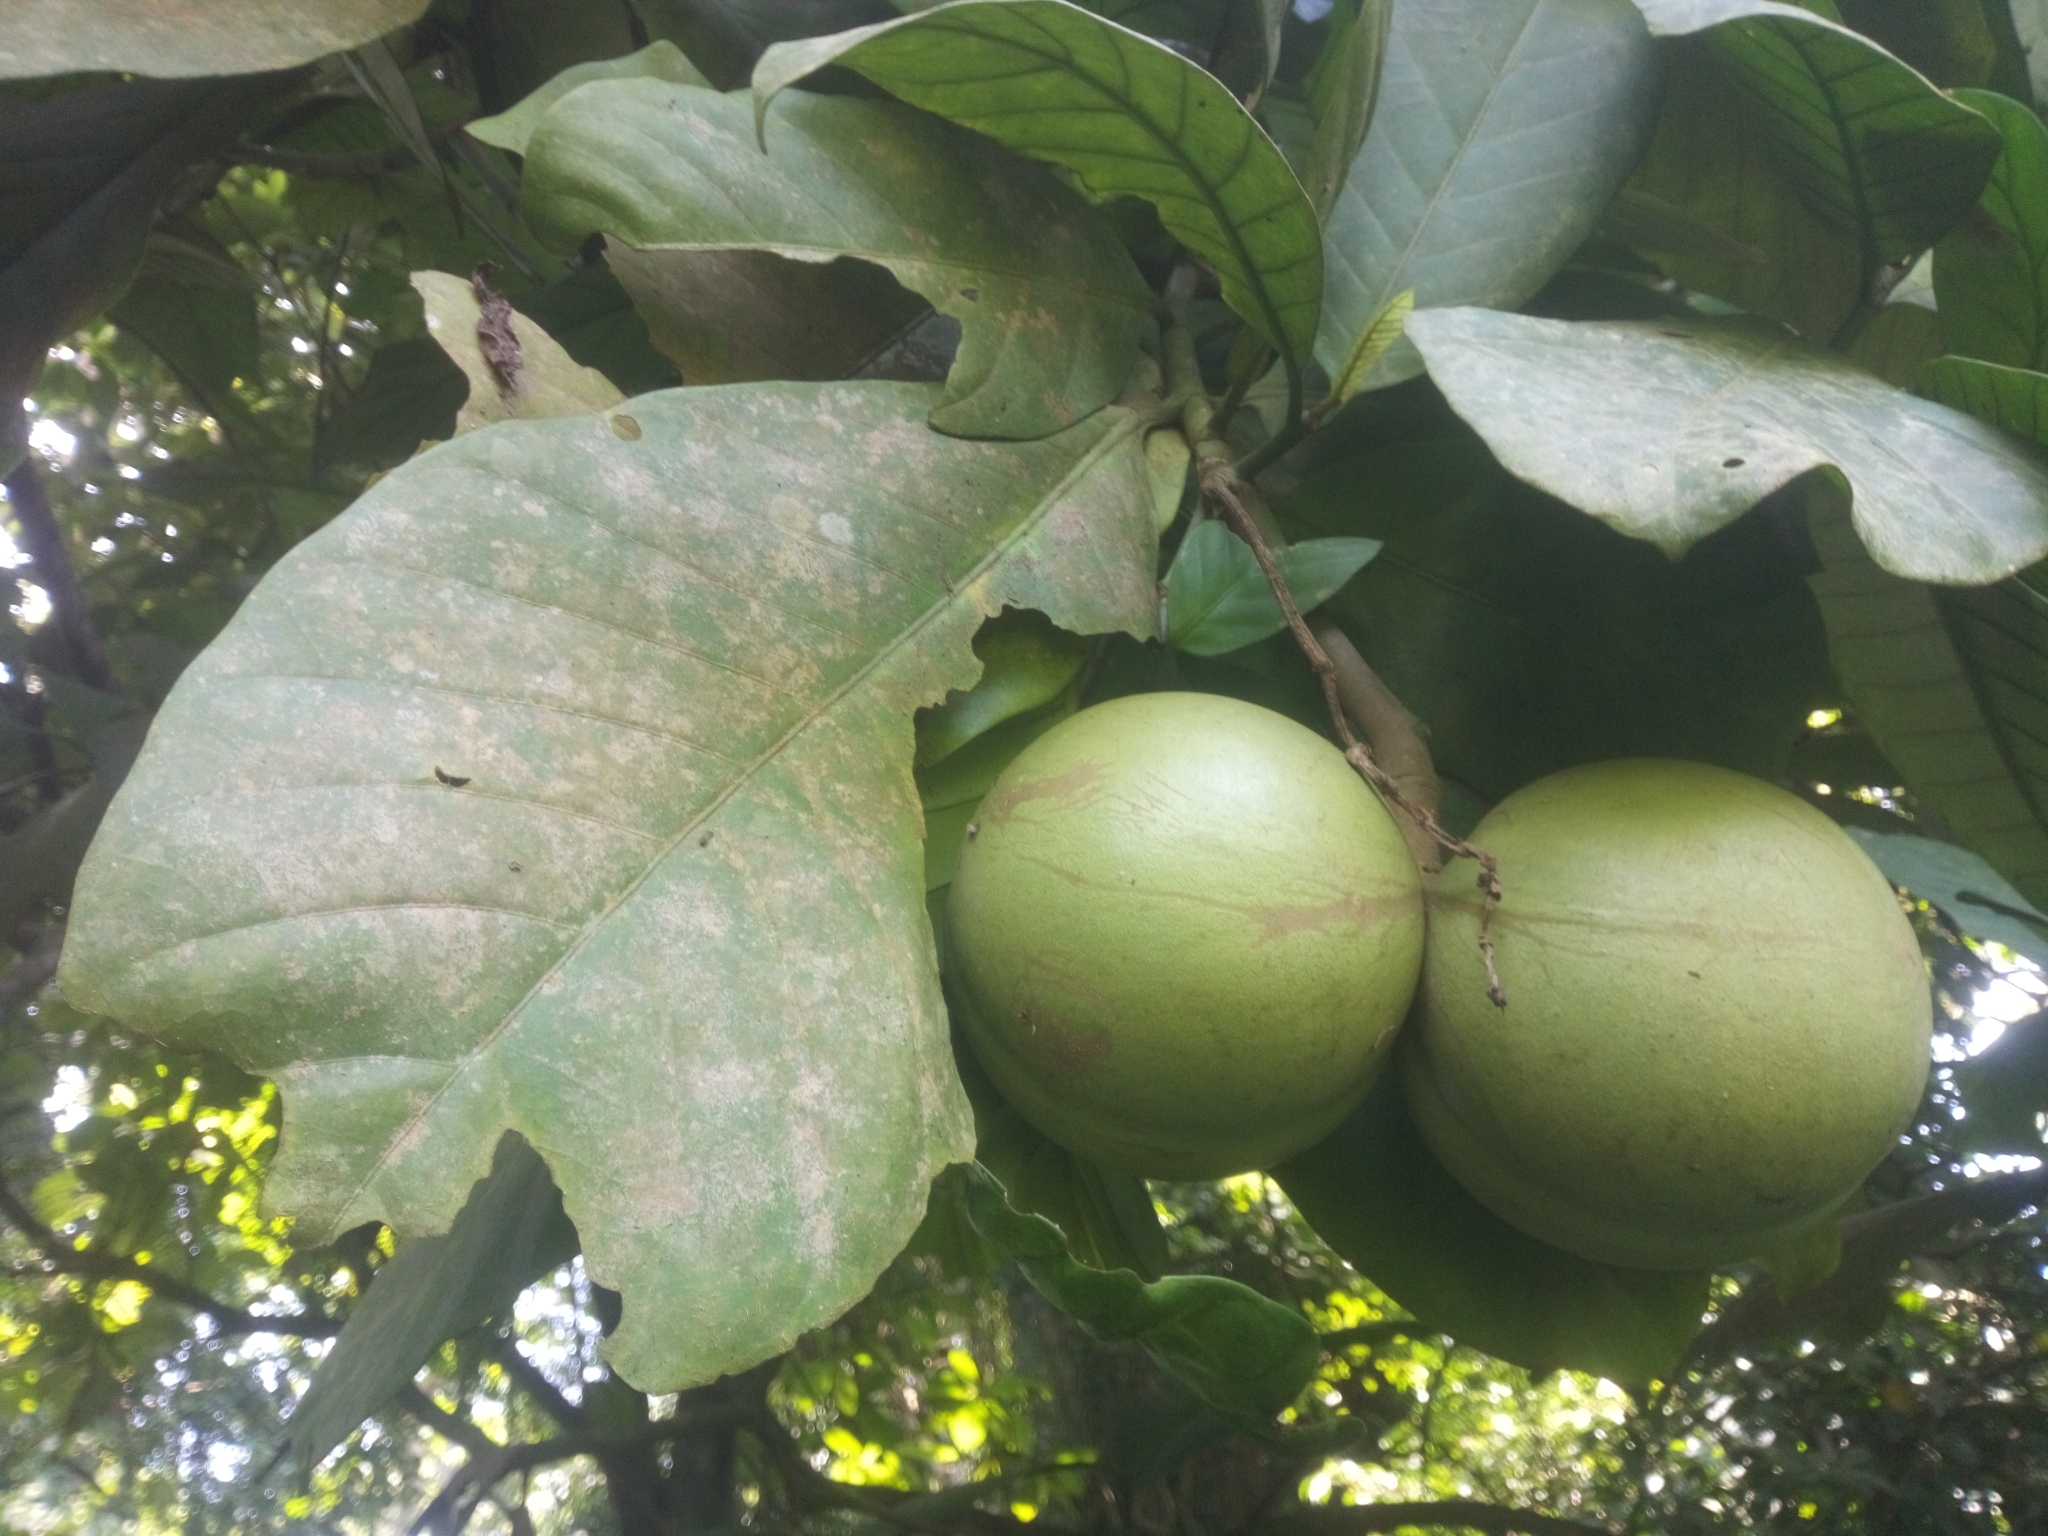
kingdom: Plantae
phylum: Tracheophyta
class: Magnoliopsida
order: Gentianales
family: Apocynaceae
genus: Tabernaemontana
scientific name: Tabernaemontana pachysiphon
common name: Giant pinwheel-flower
